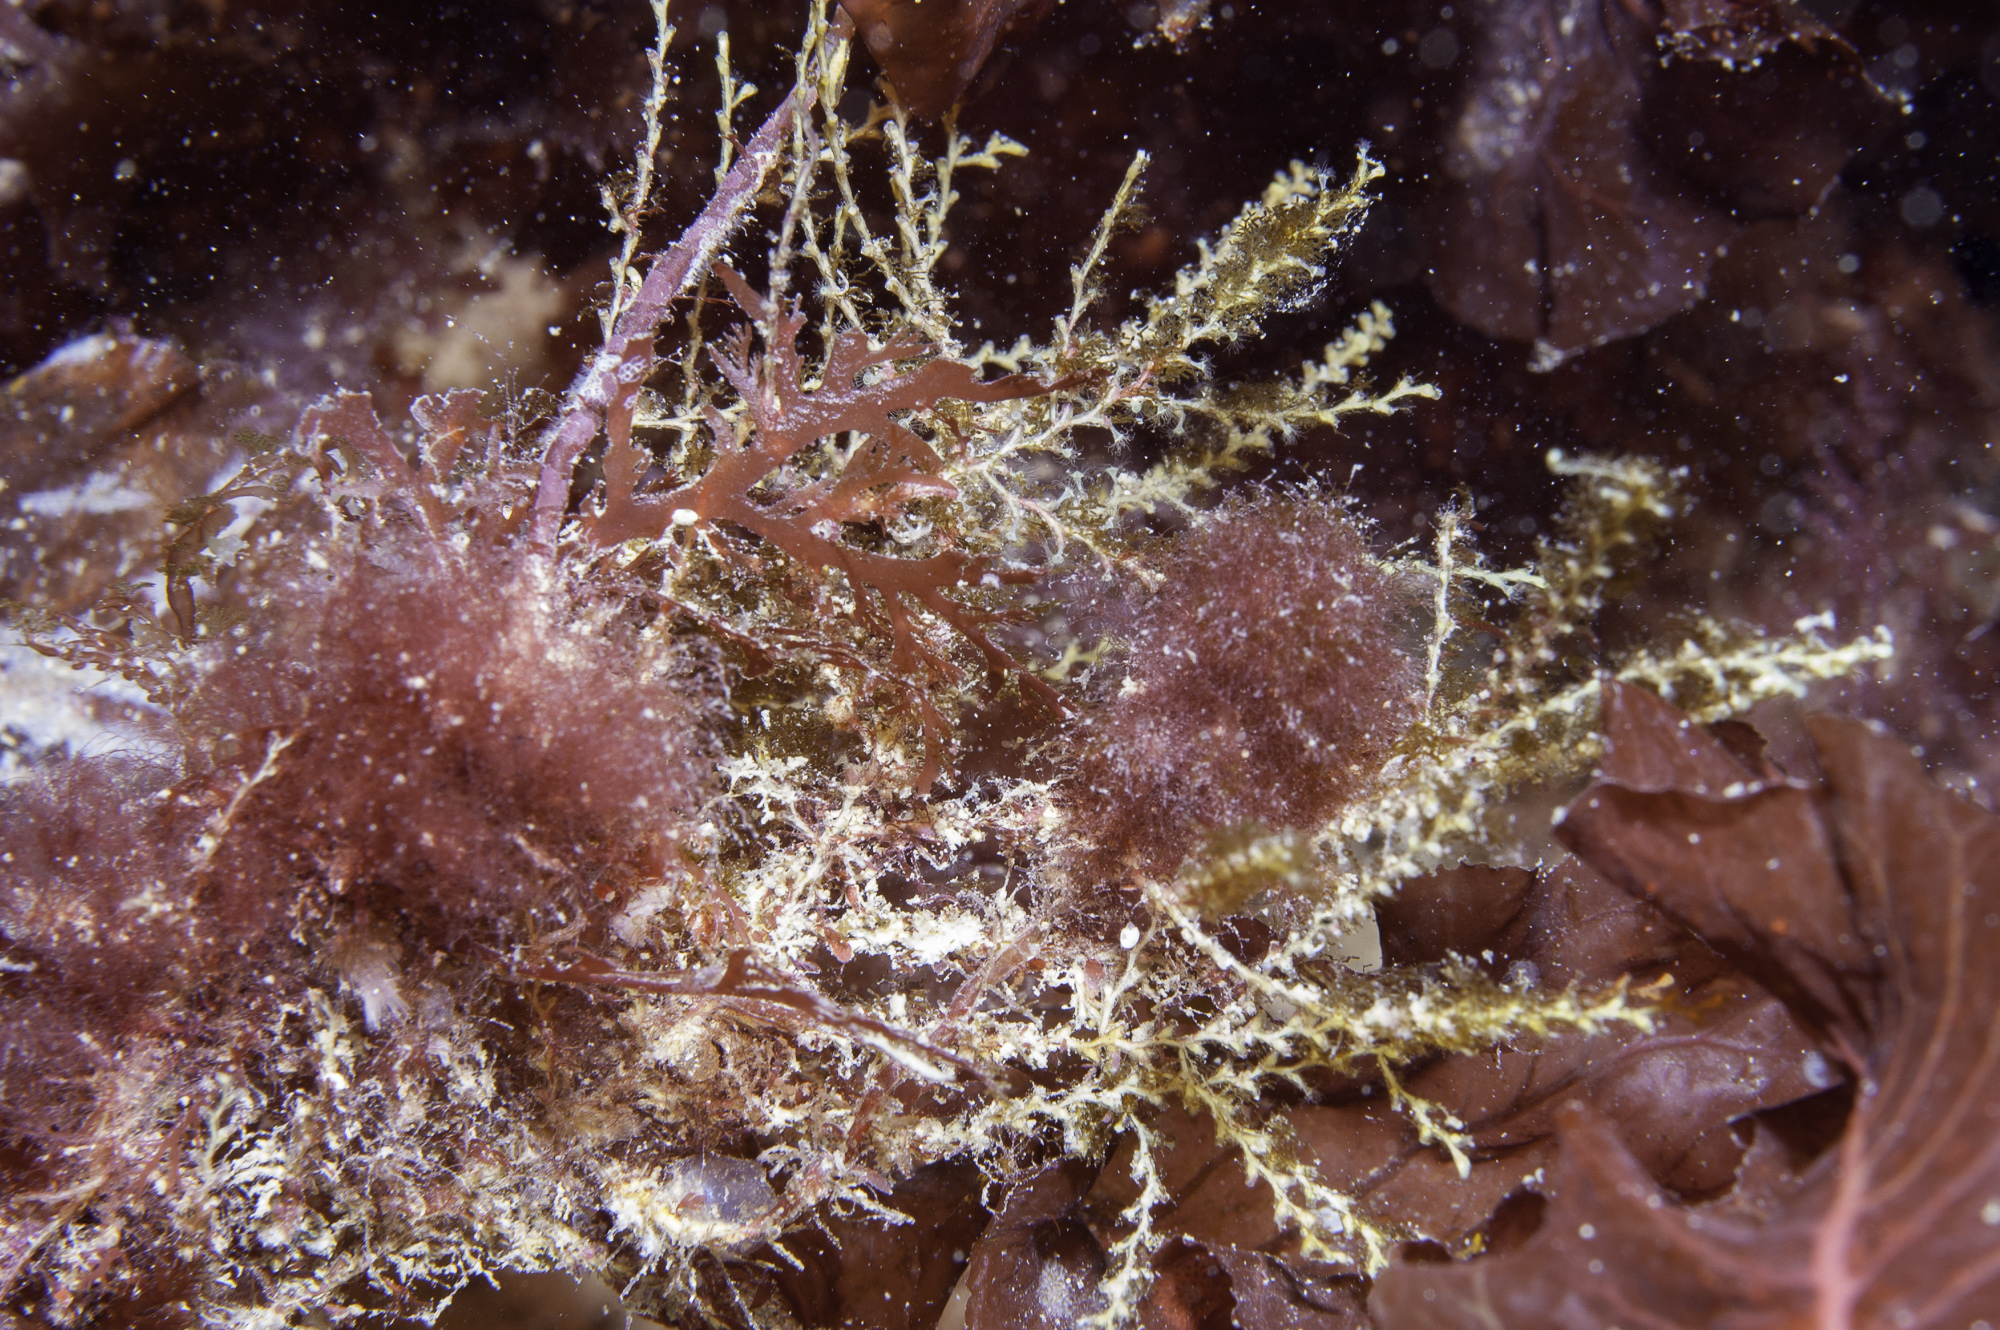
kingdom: Animalia
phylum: Cnidaria
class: Hydrozoa
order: Leptothecata
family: Sertularellidae
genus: Sertularella
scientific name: Sertularella polyzonias
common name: Great tooth hydroid
